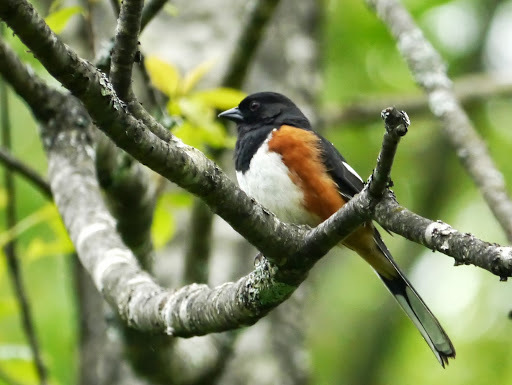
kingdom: Animalia
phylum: Chordata
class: Aves
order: Passeriformes
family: Passerellidae
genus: Pipilo
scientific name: Pipilo erythrophthalmus
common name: Eastern towhee
